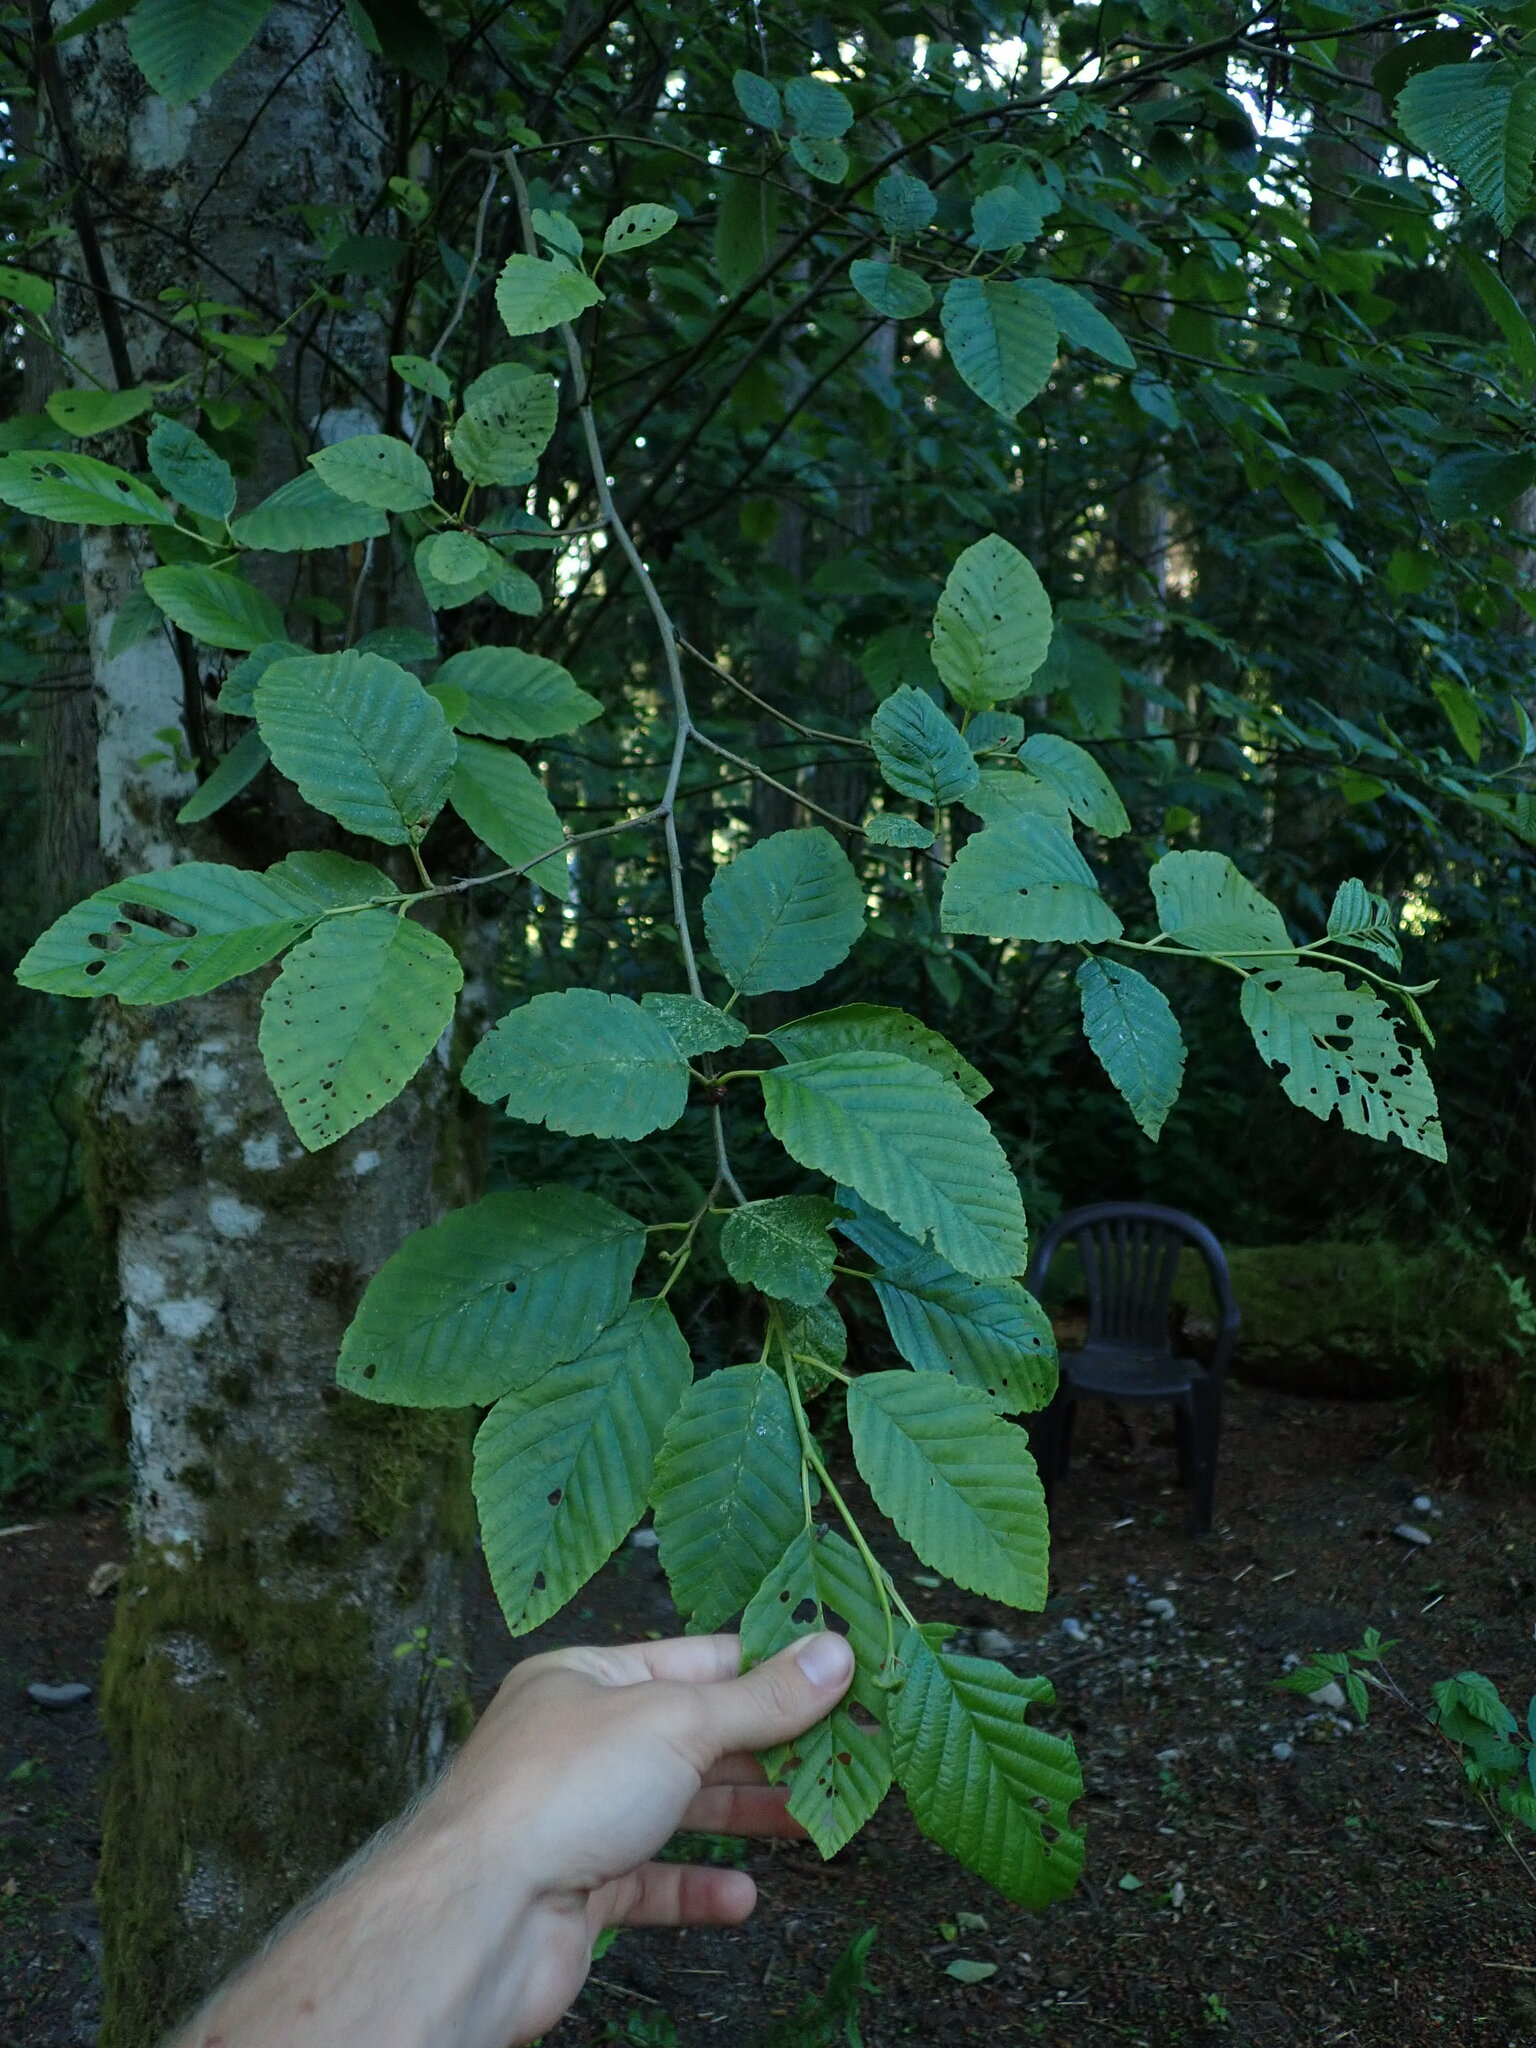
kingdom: Plantae
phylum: Tracheophyta
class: Magnoliopsida
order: Fagales
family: Betulaceae
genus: Alnus
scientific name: Alnus rubra
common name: Red alder
